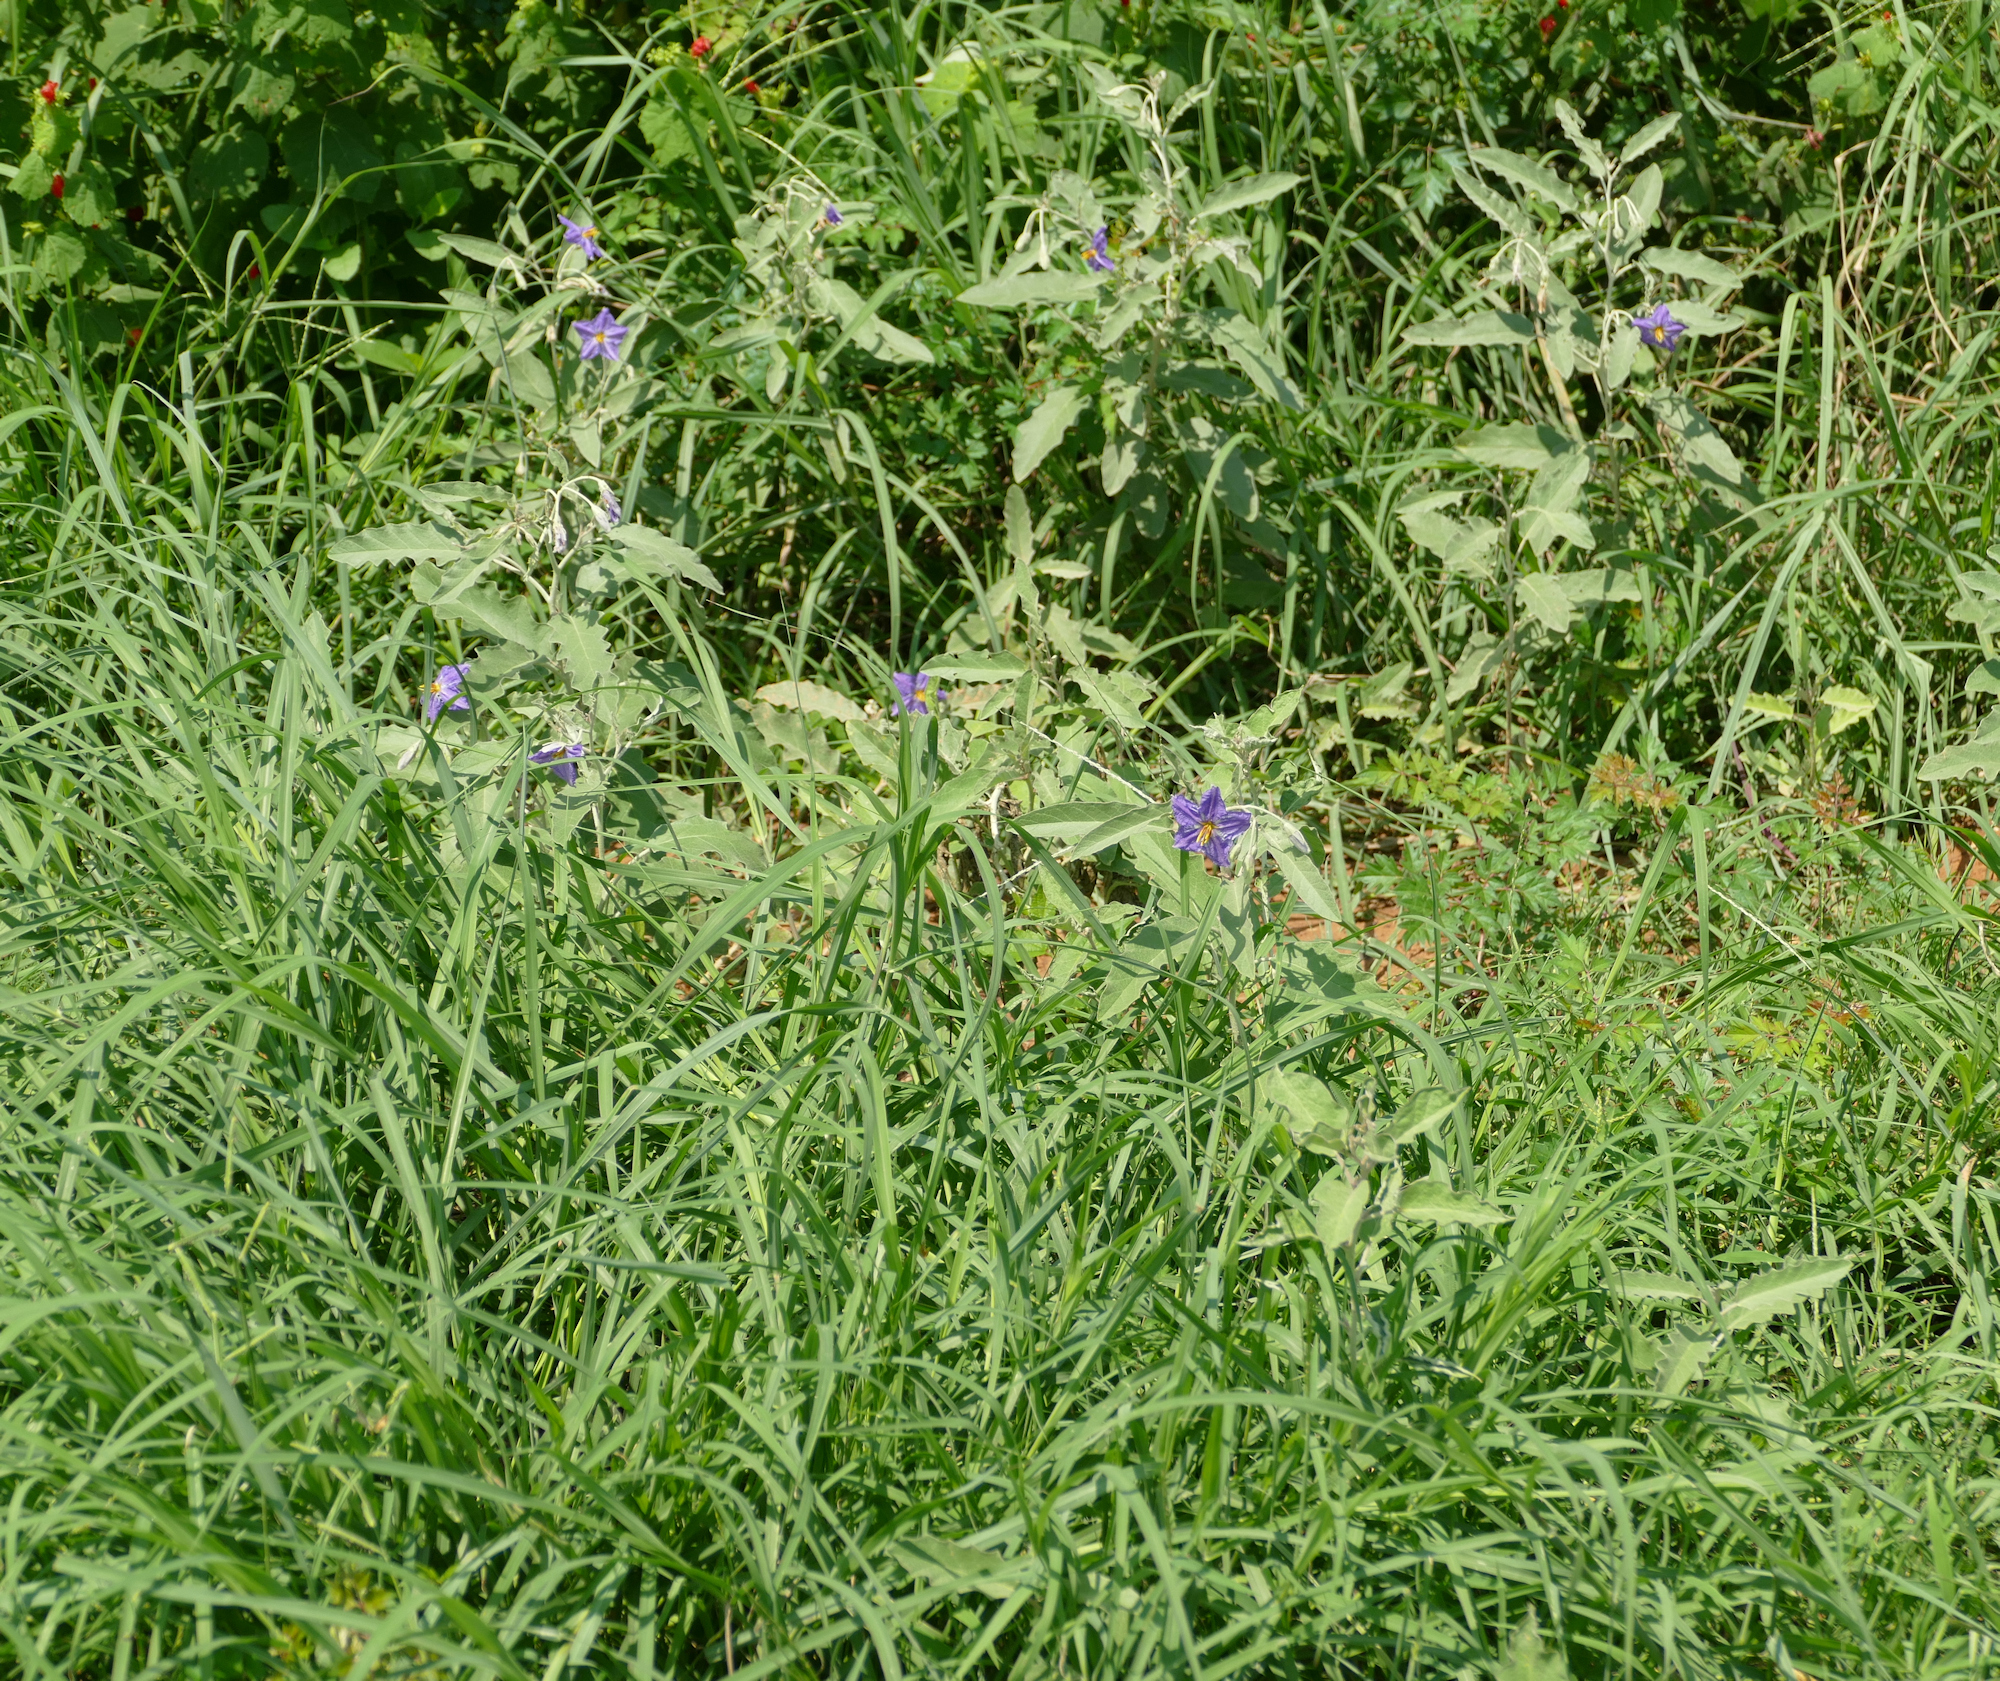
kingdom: Plantae
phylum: Tracheophyta
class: Magnoliopsida
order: Solanales
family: Solanaceae
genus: Solanum
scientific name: Solanum elaeagnifolium
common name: Silverleaf nightshade
